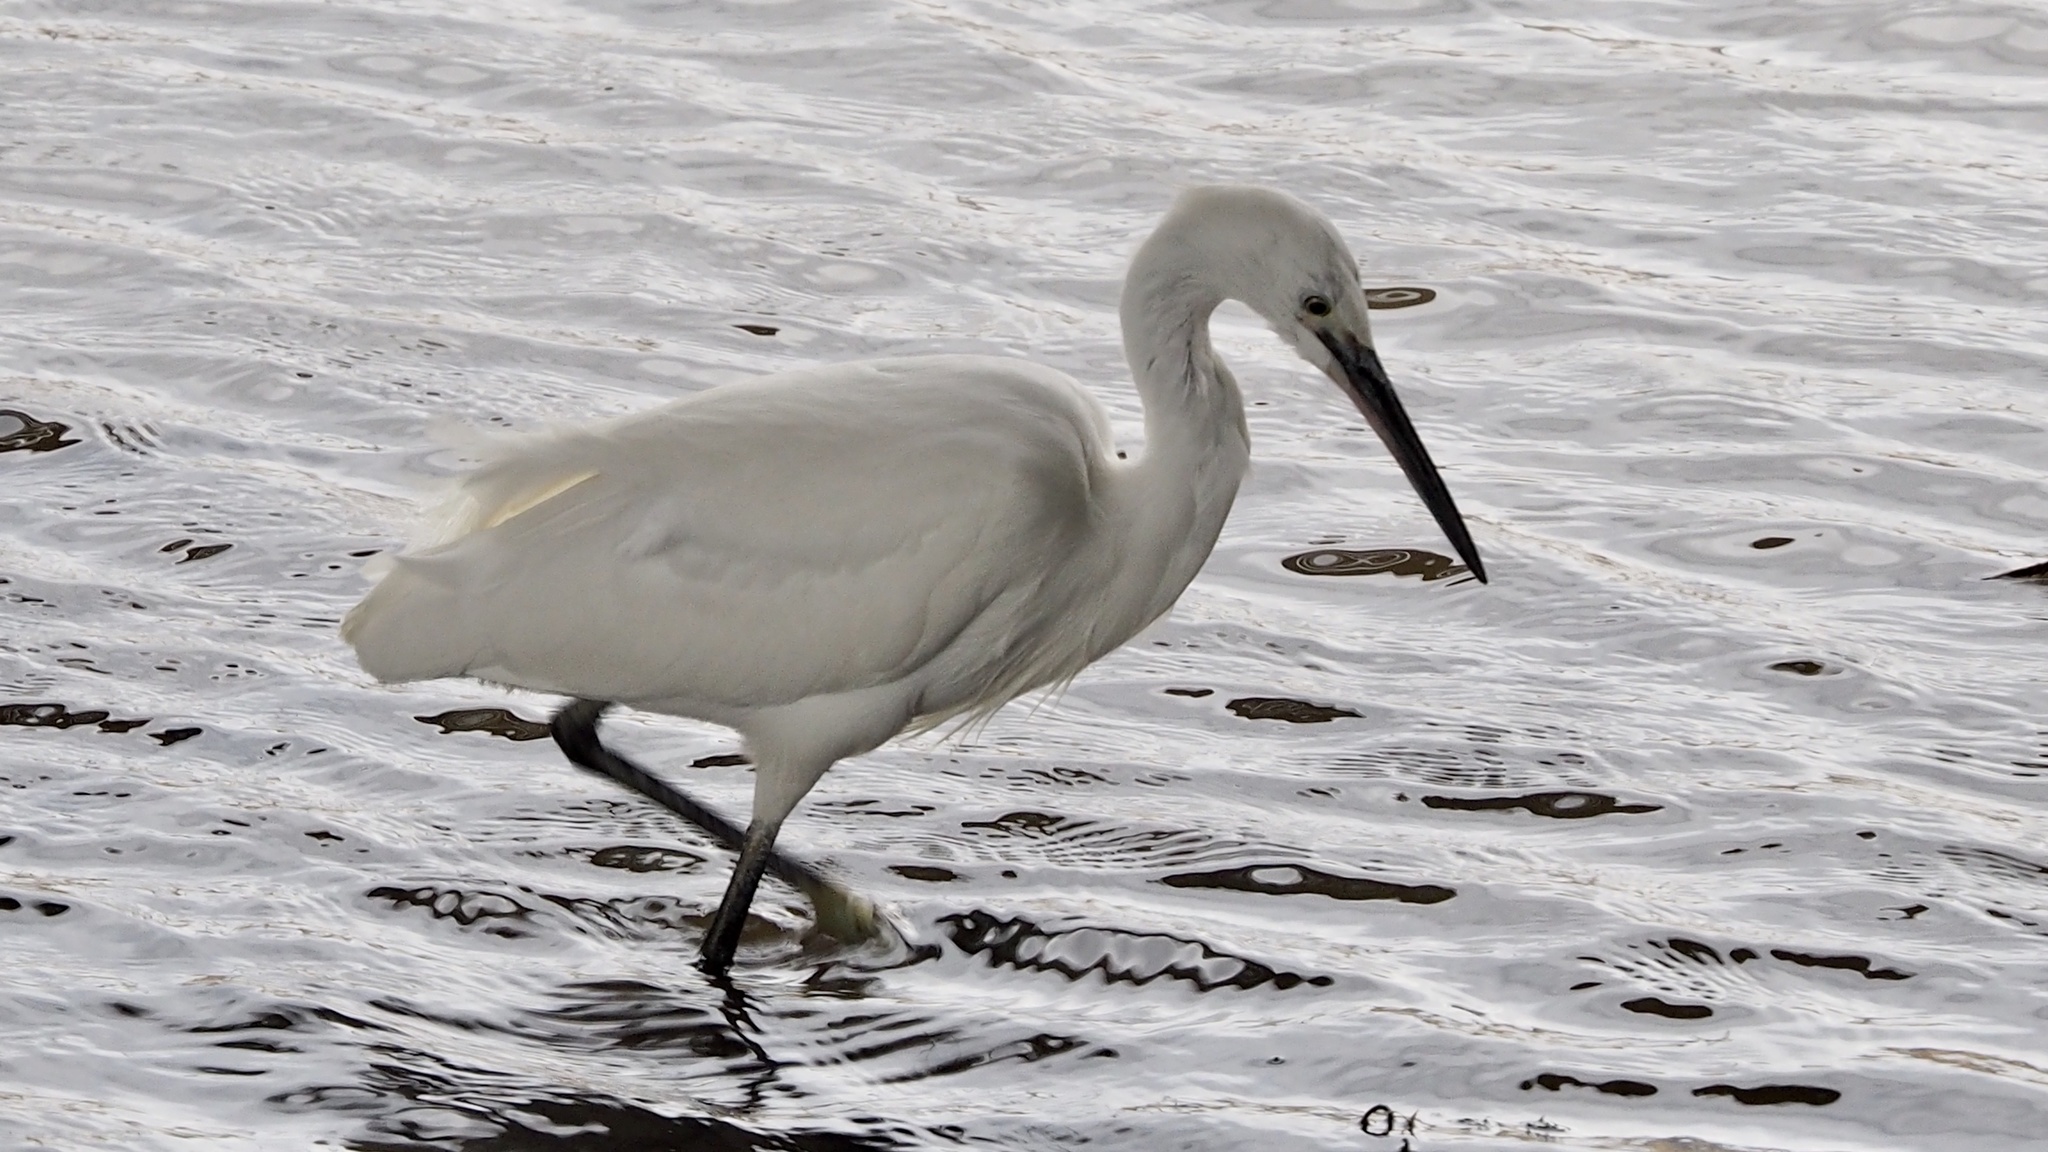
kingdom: Animalia
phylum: Chordata
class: Aves
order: Pelecaniformes
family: Ardeidae
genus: Egretta
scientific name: Egretta garzetta
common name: Little egret
